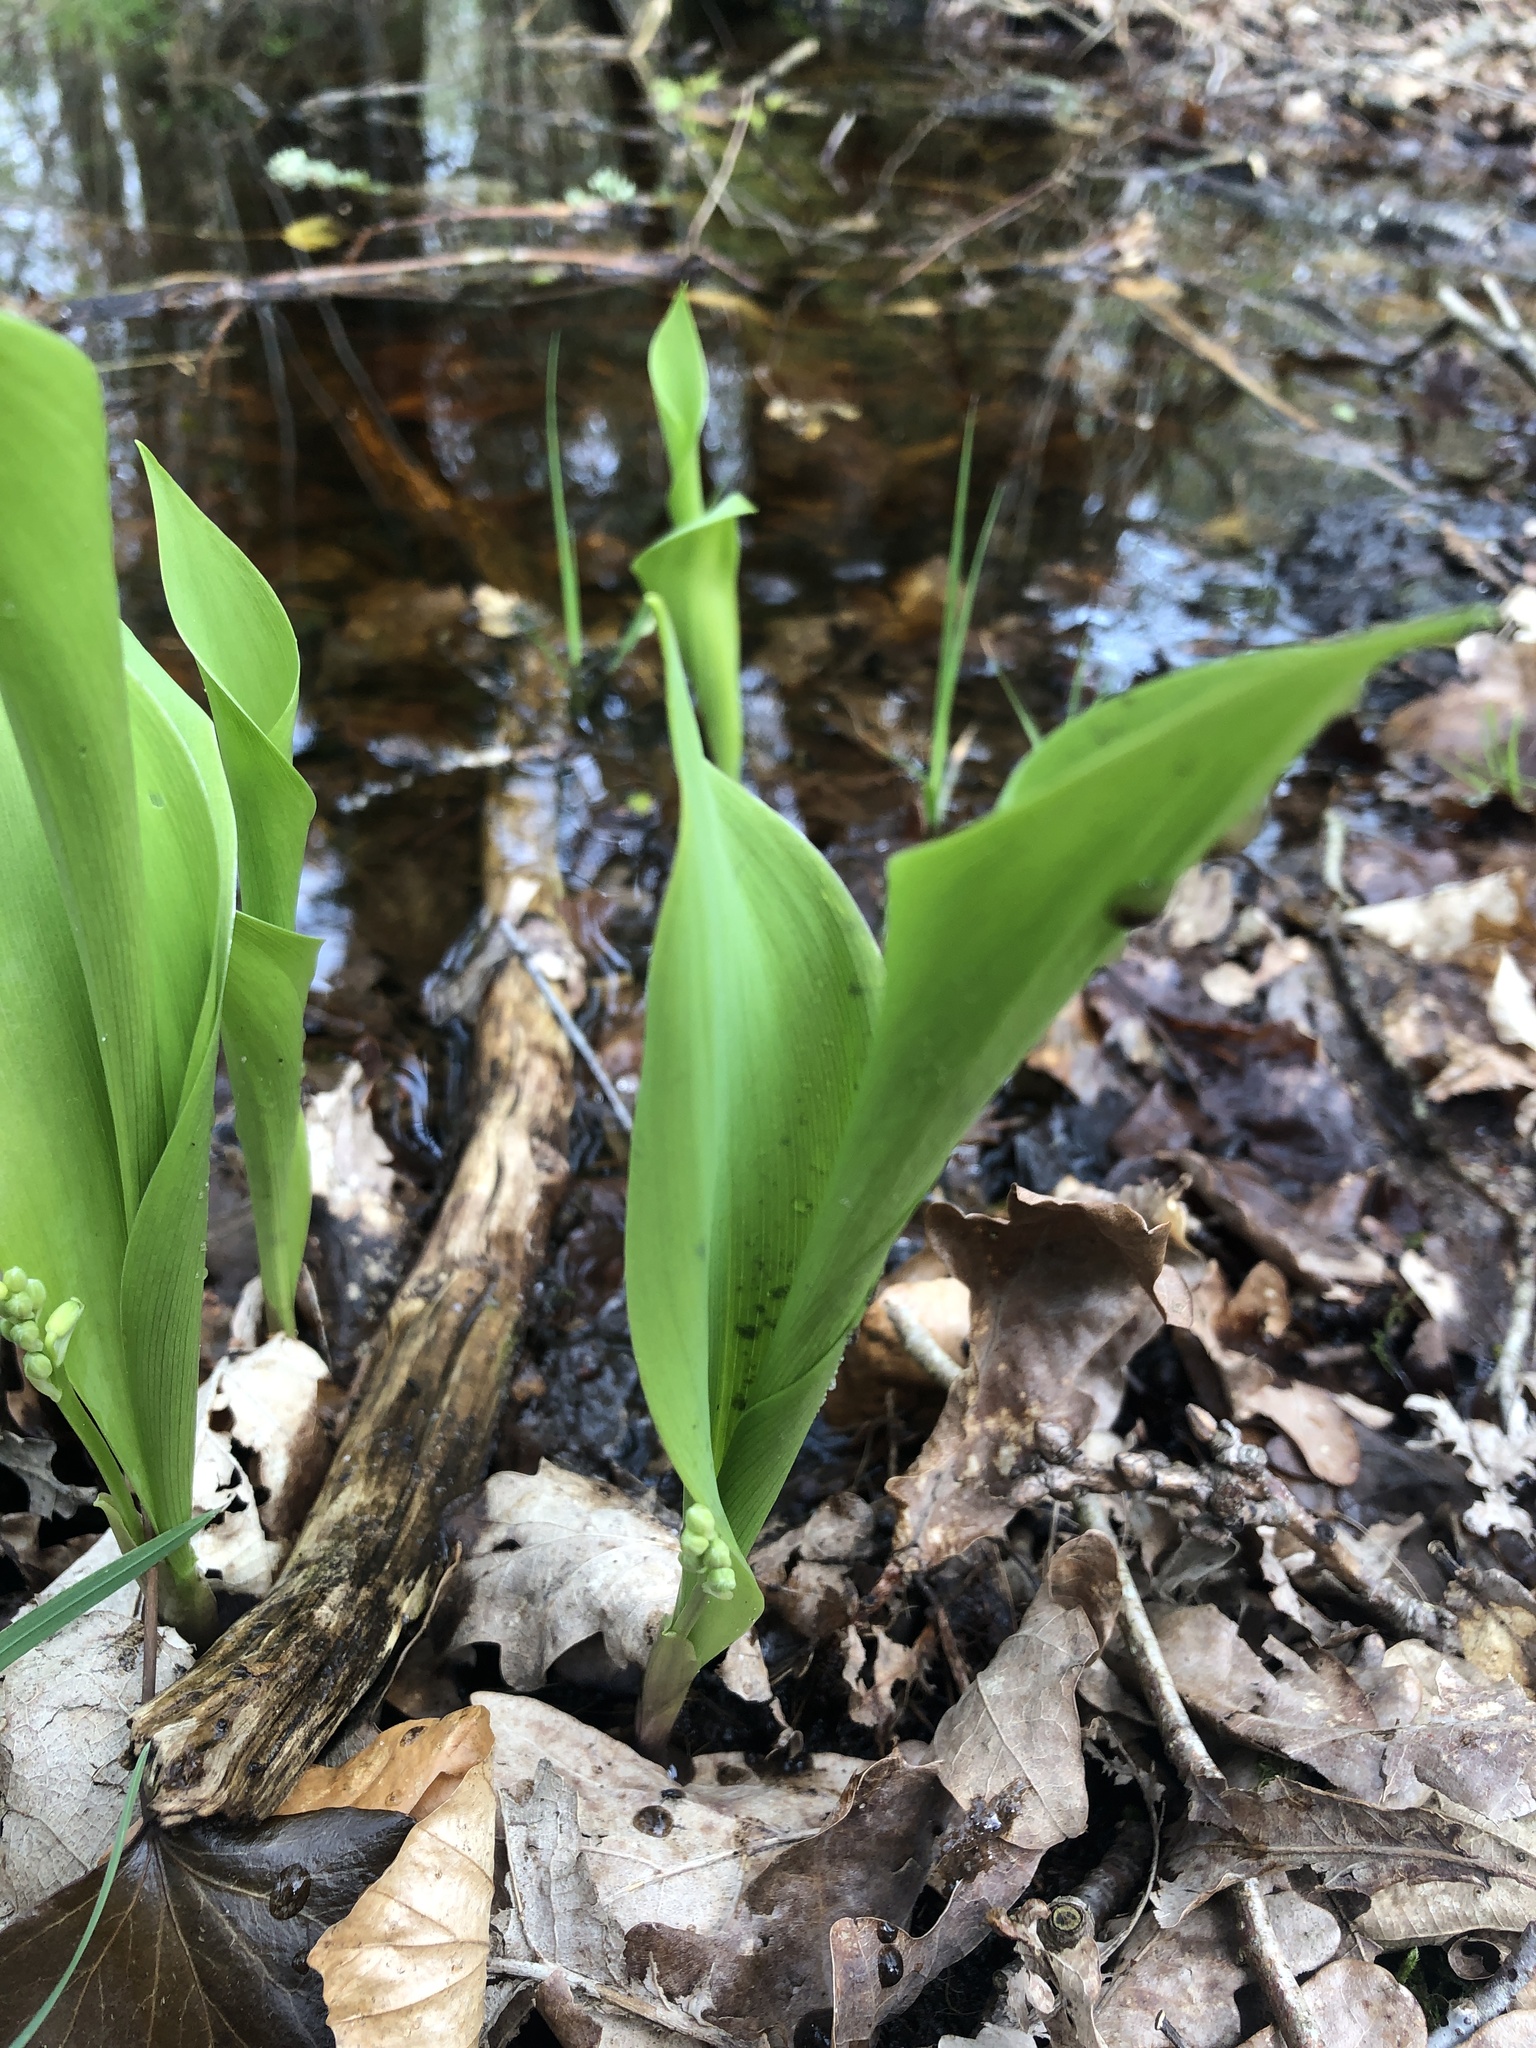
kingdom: Plantae
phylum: Tracheophyta
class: Liliopsida
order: Asparagales
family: Asparagaceae
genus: Convallaria
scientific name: Convallaria majalis
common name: Lily-of-the-valley
